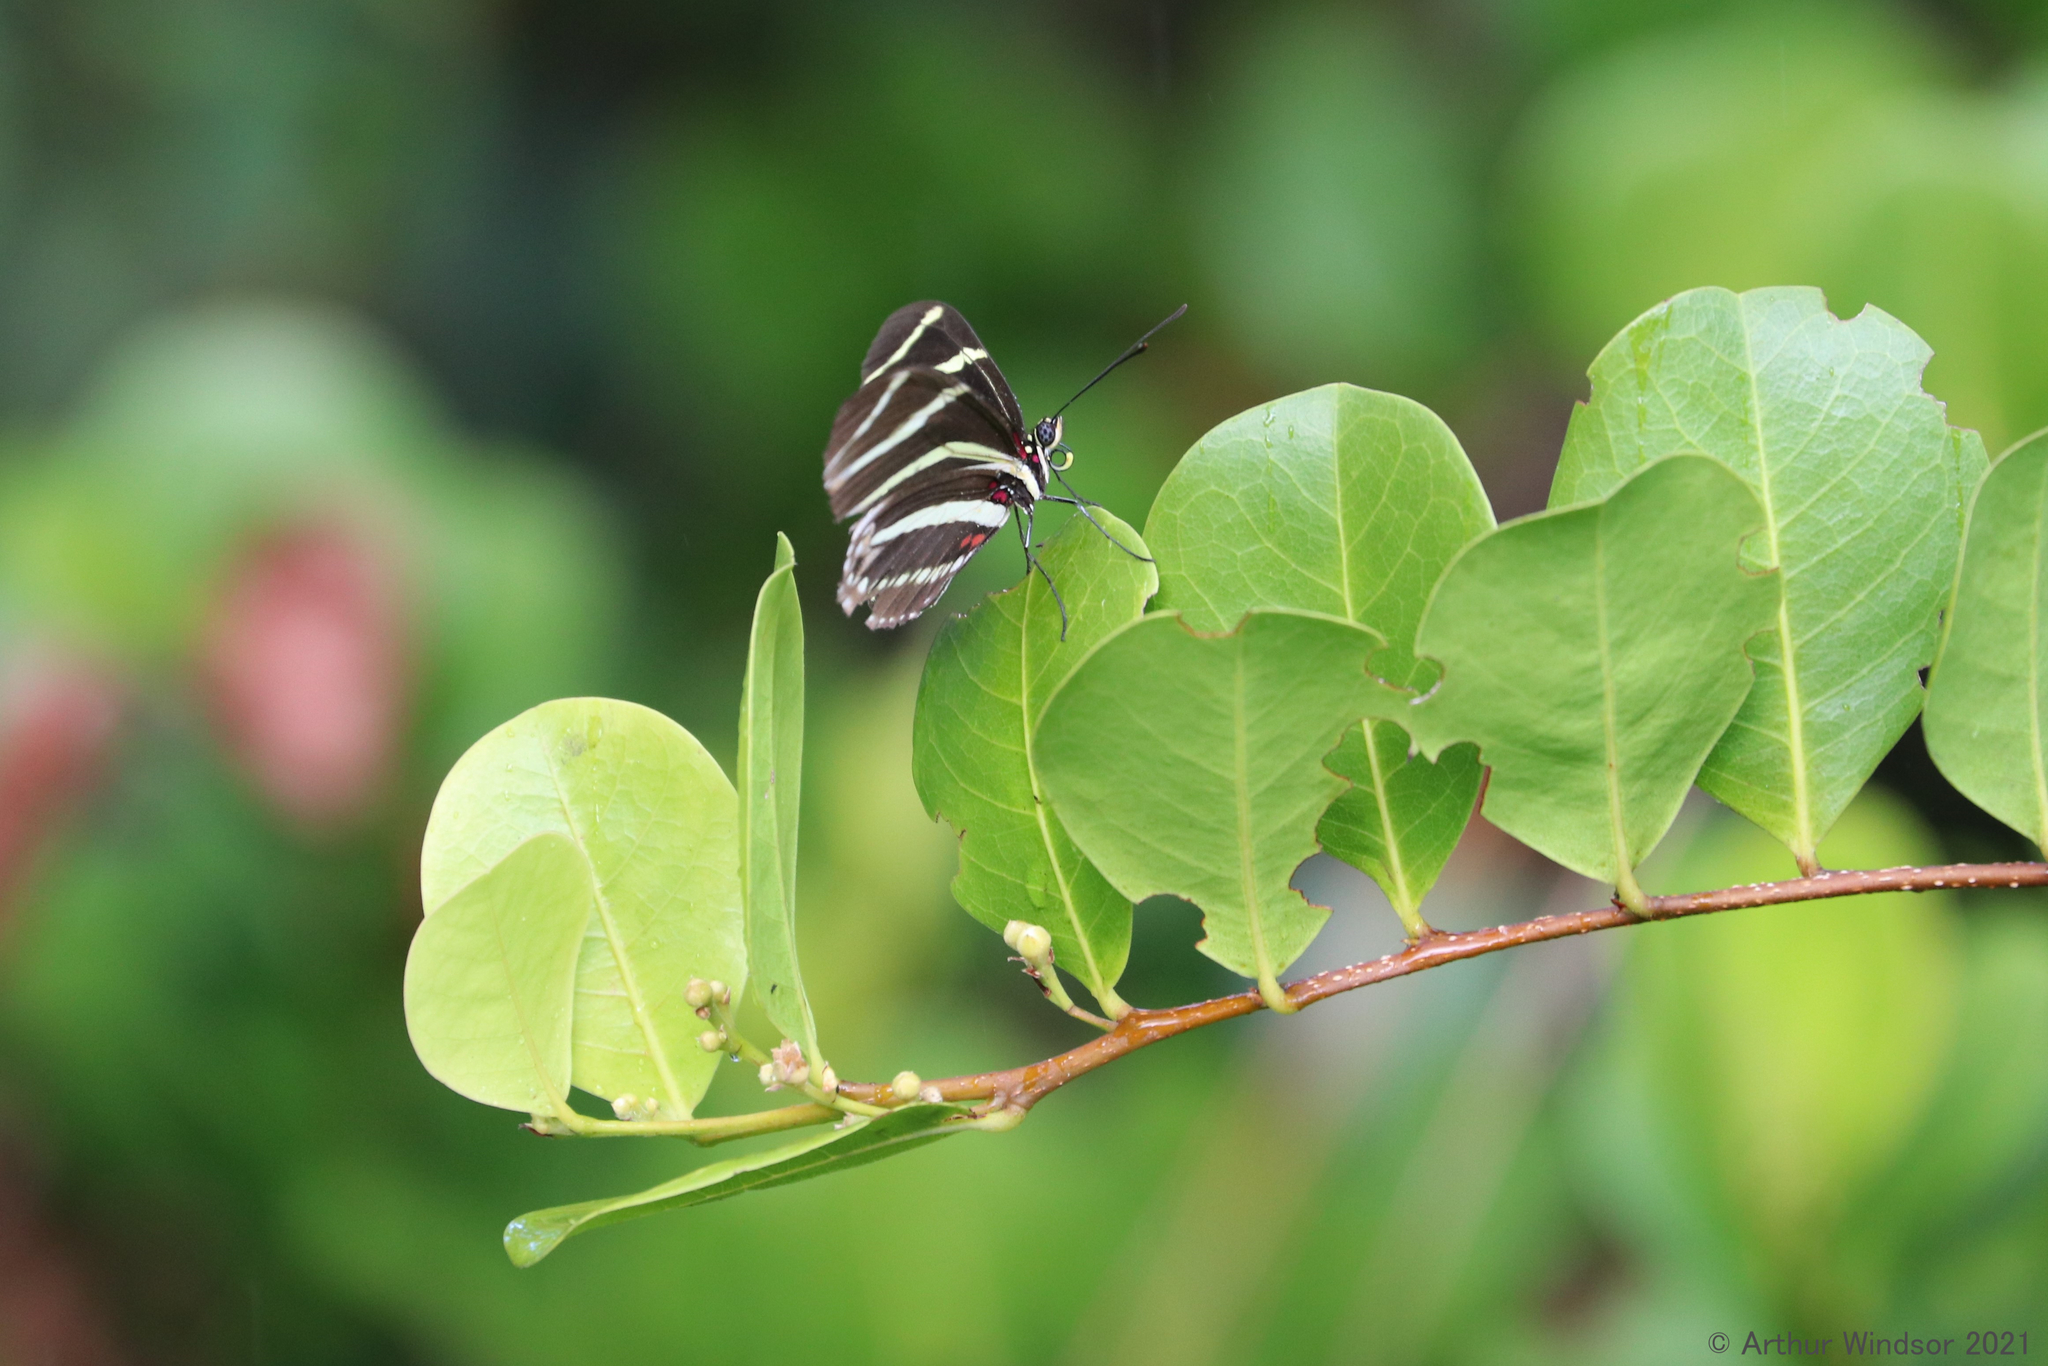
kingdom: Animalia
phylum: Arthropoda
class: Insecta
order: Lepidoptera
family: Nymphalidae
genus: Heliconius
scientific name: Heliconius charithonia
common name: Zebra long wing
